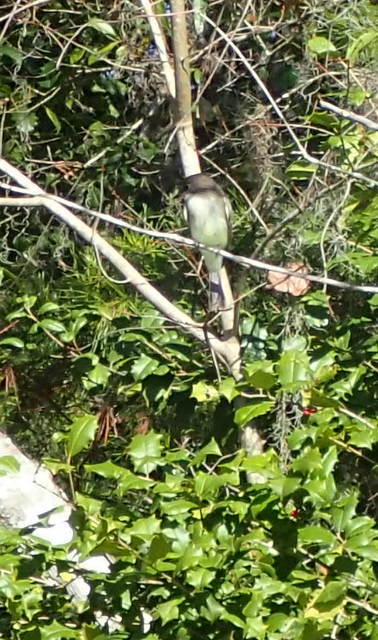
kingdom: Animalia
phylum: Chordata
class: Aves
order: Passeriformes
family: Tyrannidae
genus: Sayornis
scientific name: Sayornis phoebe
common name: Eastern phoebe
